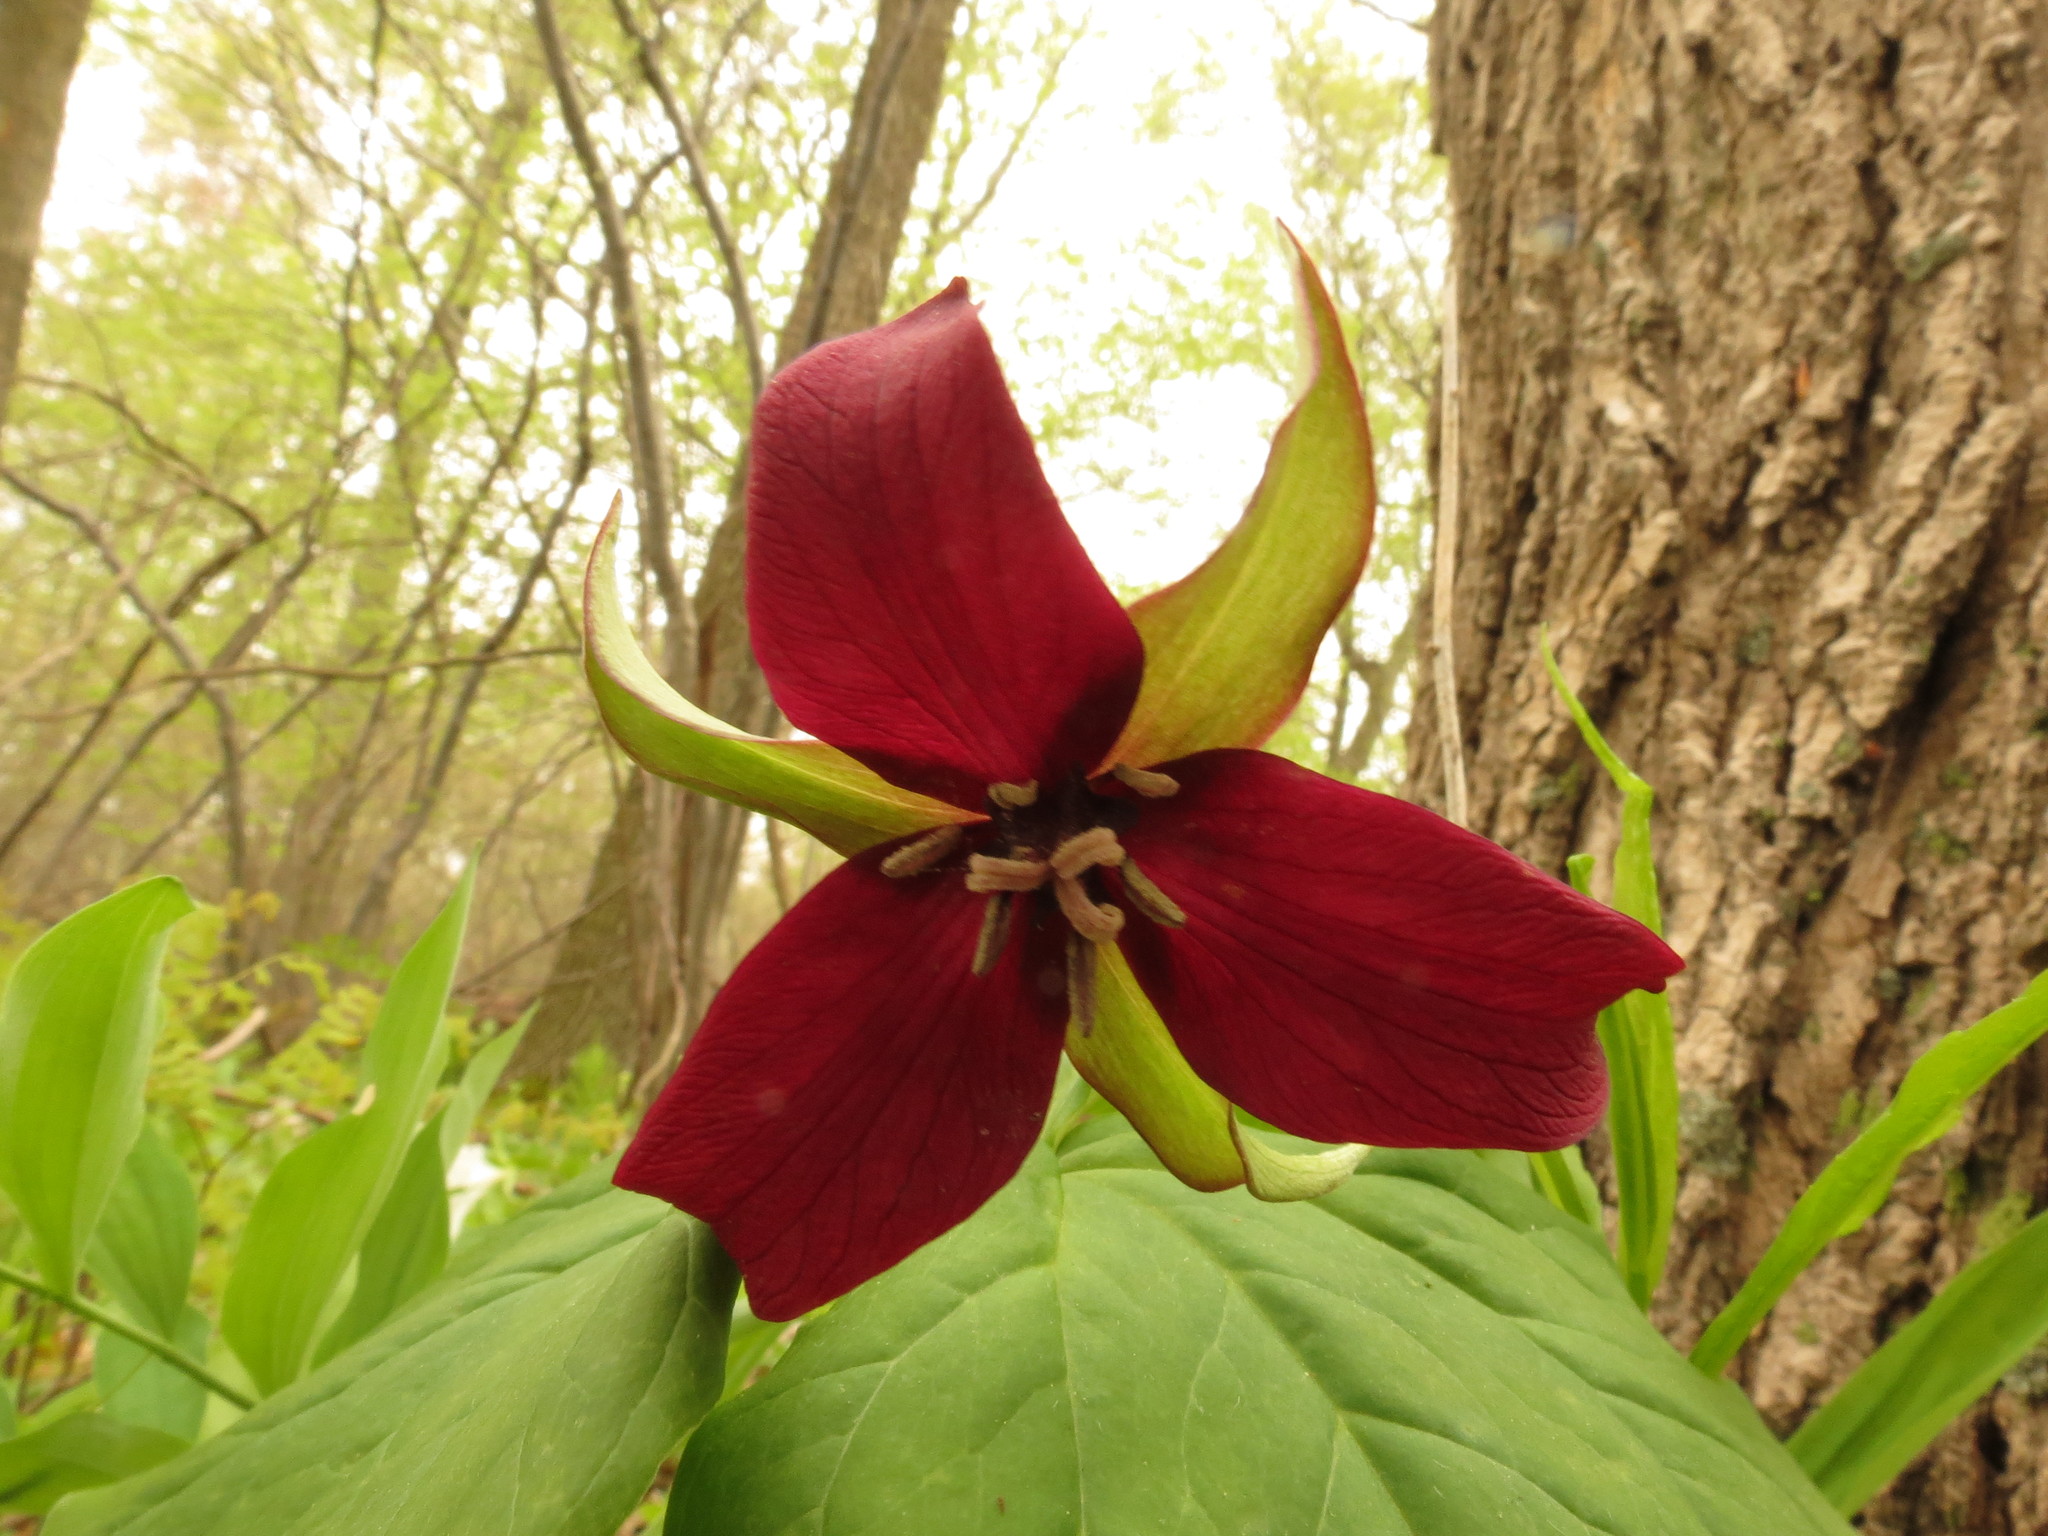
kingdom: Plantae
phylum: Tracheophyta
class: Liliopsida
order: Liliales
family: Melanthiaceae
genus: Trillium
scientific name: Trillium erectum
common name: Purple trillium
